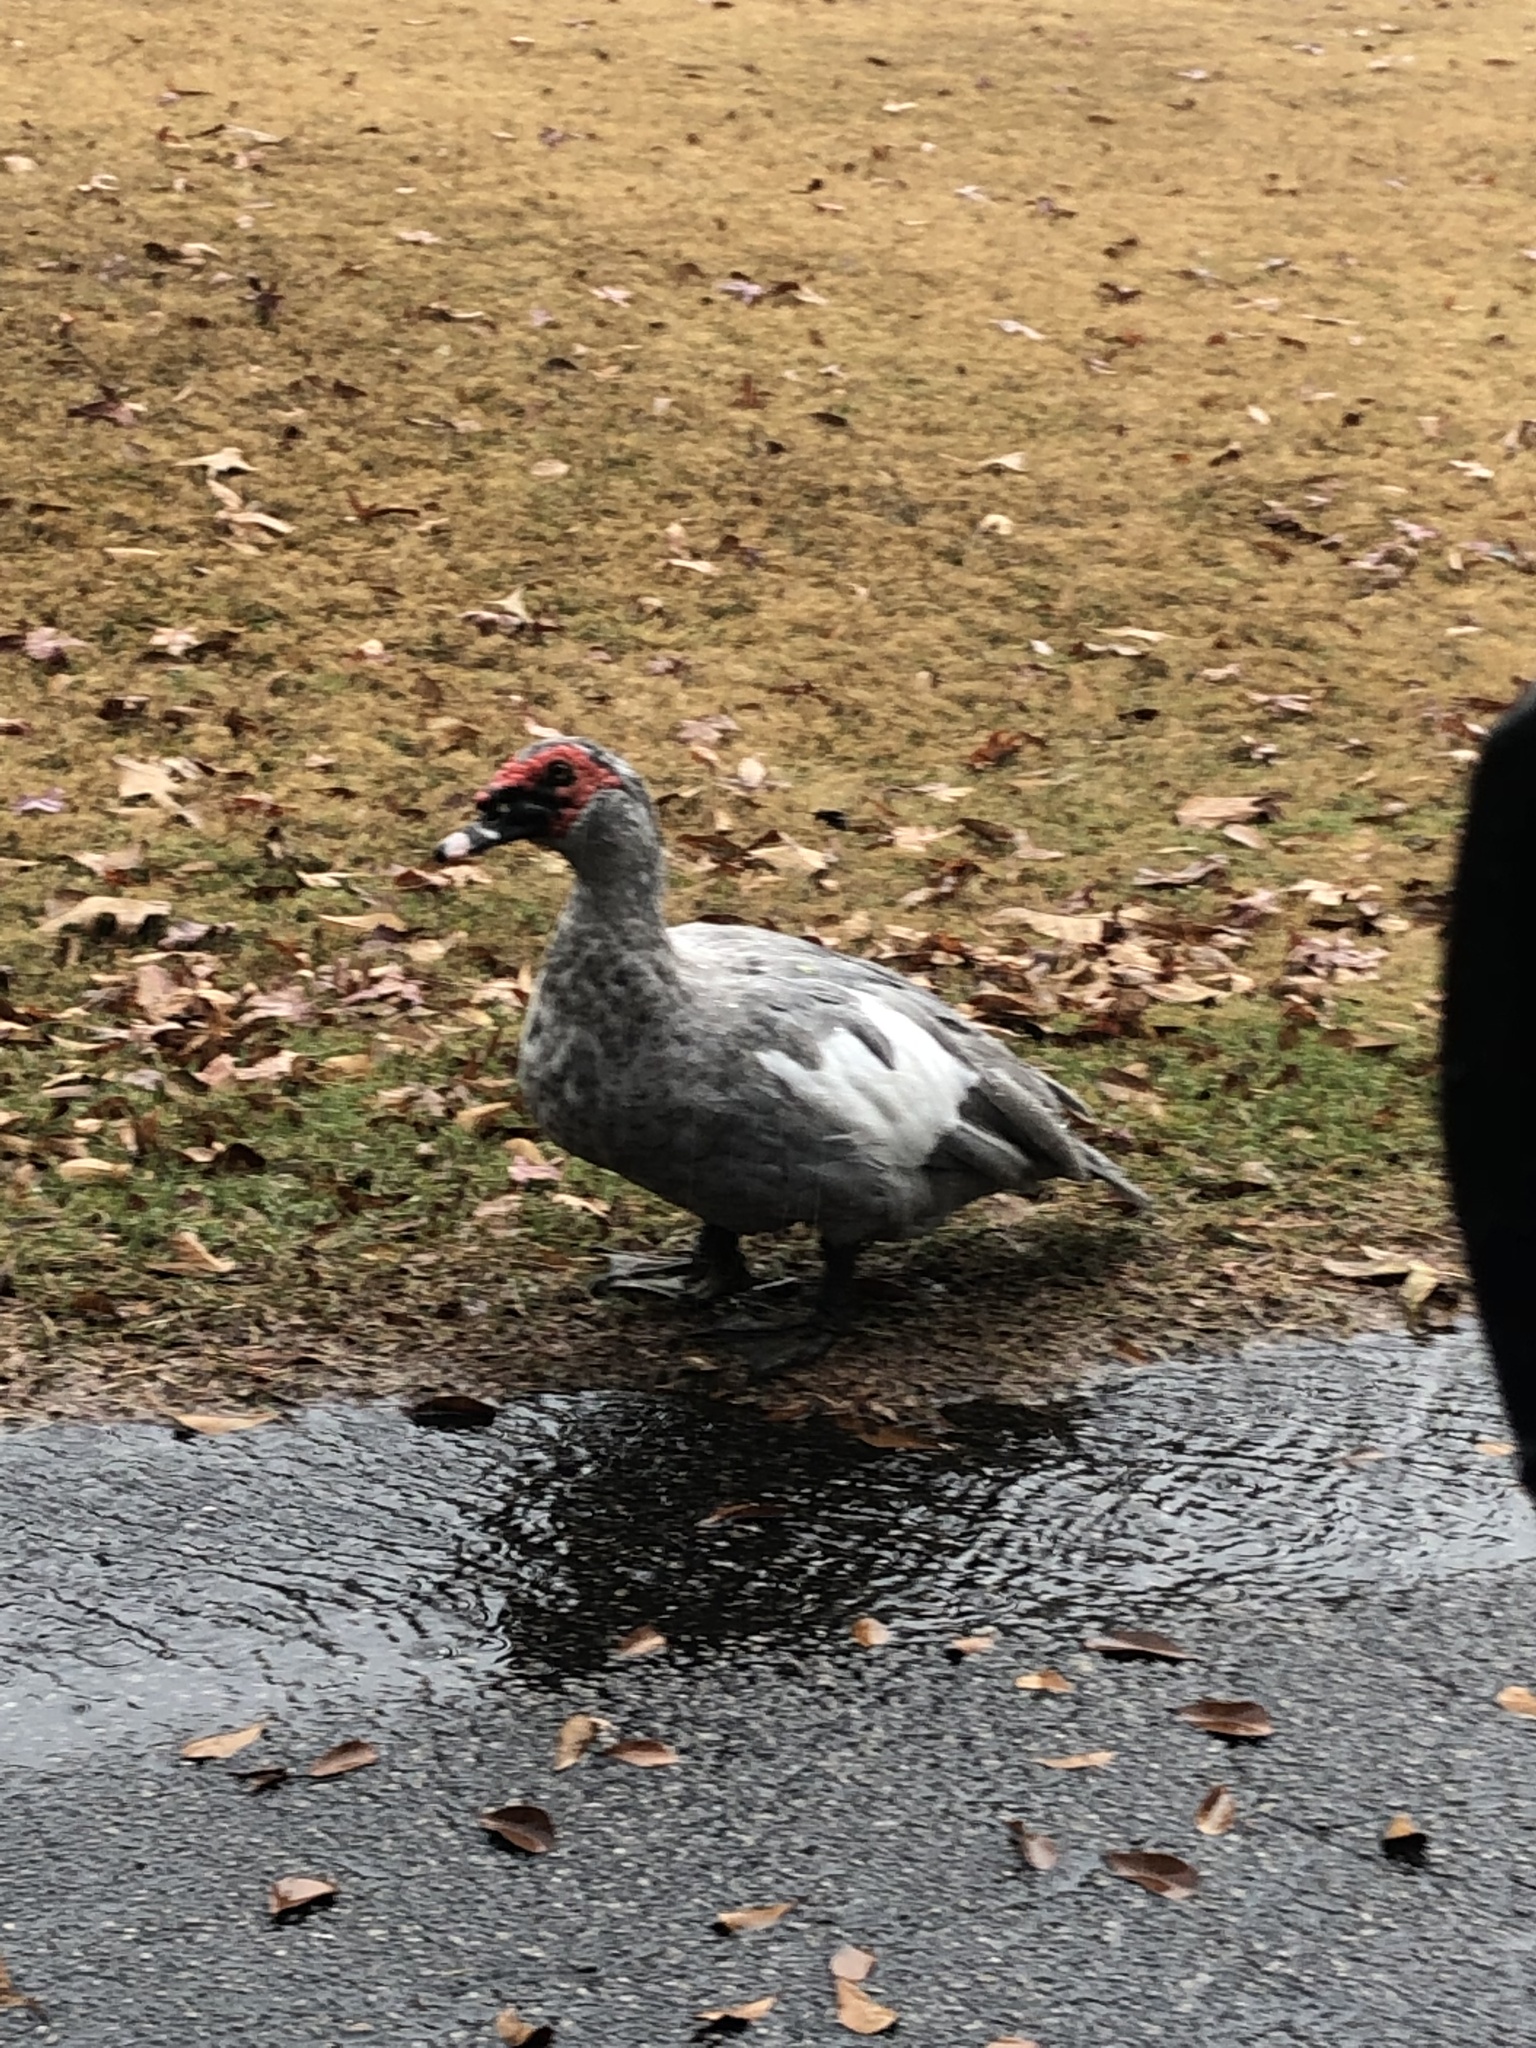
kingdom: Animalia
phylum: Chordata
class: Aves
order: Anseriformes
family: Anatidae
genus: Cairina
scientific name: Cairina moschata
